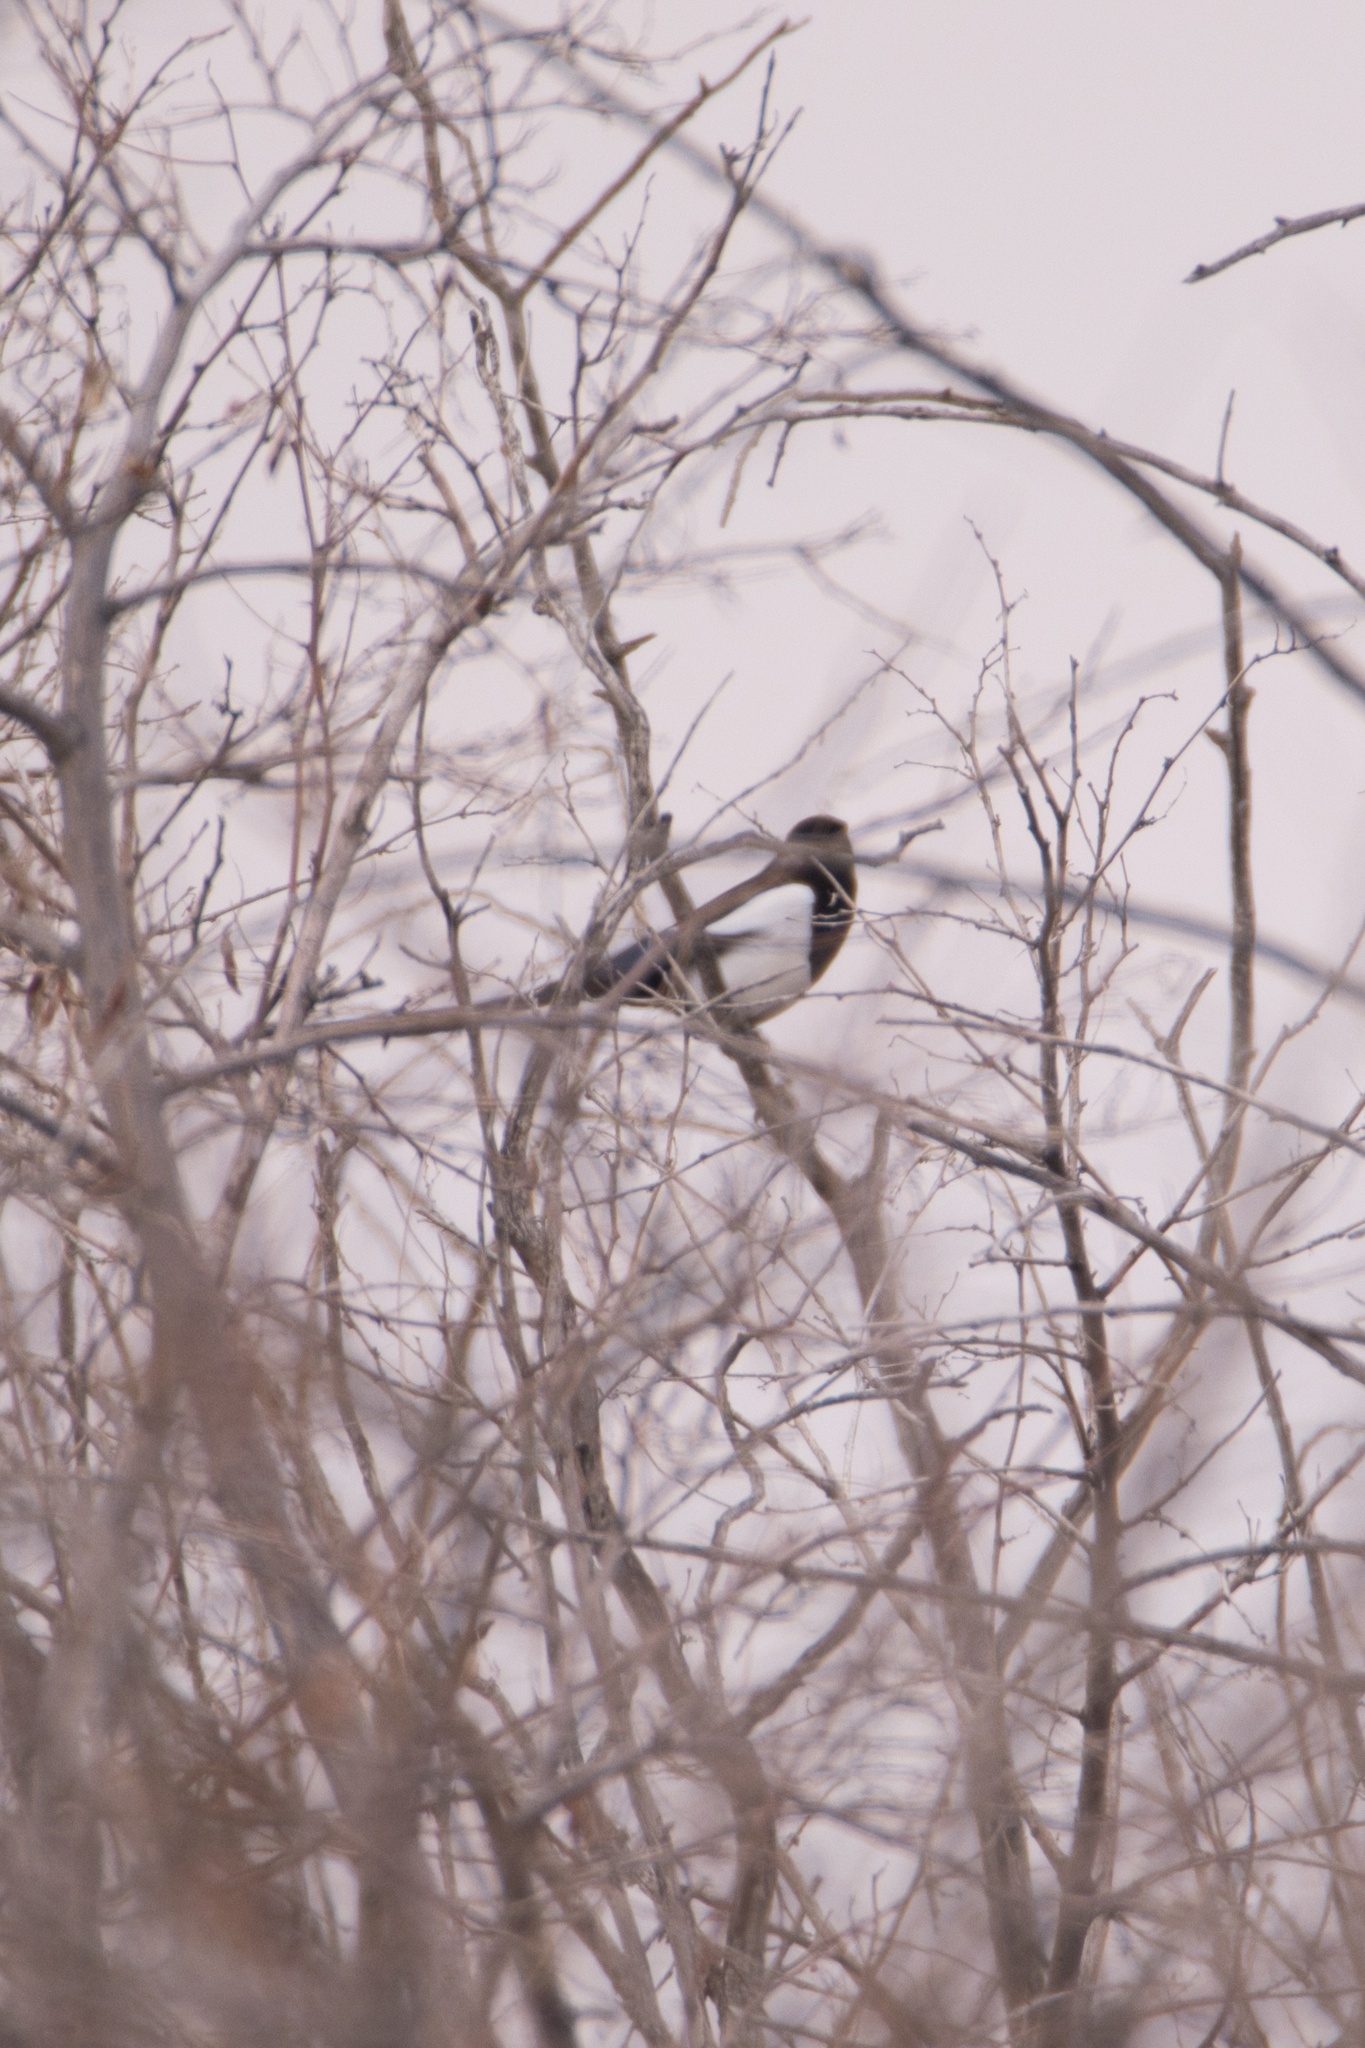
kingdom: Animalia
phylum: Chordata
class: Aves
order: Passeriformes
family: Corvidae
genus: Pica
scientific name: Pica hudsonia
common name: Black-billed magpie
